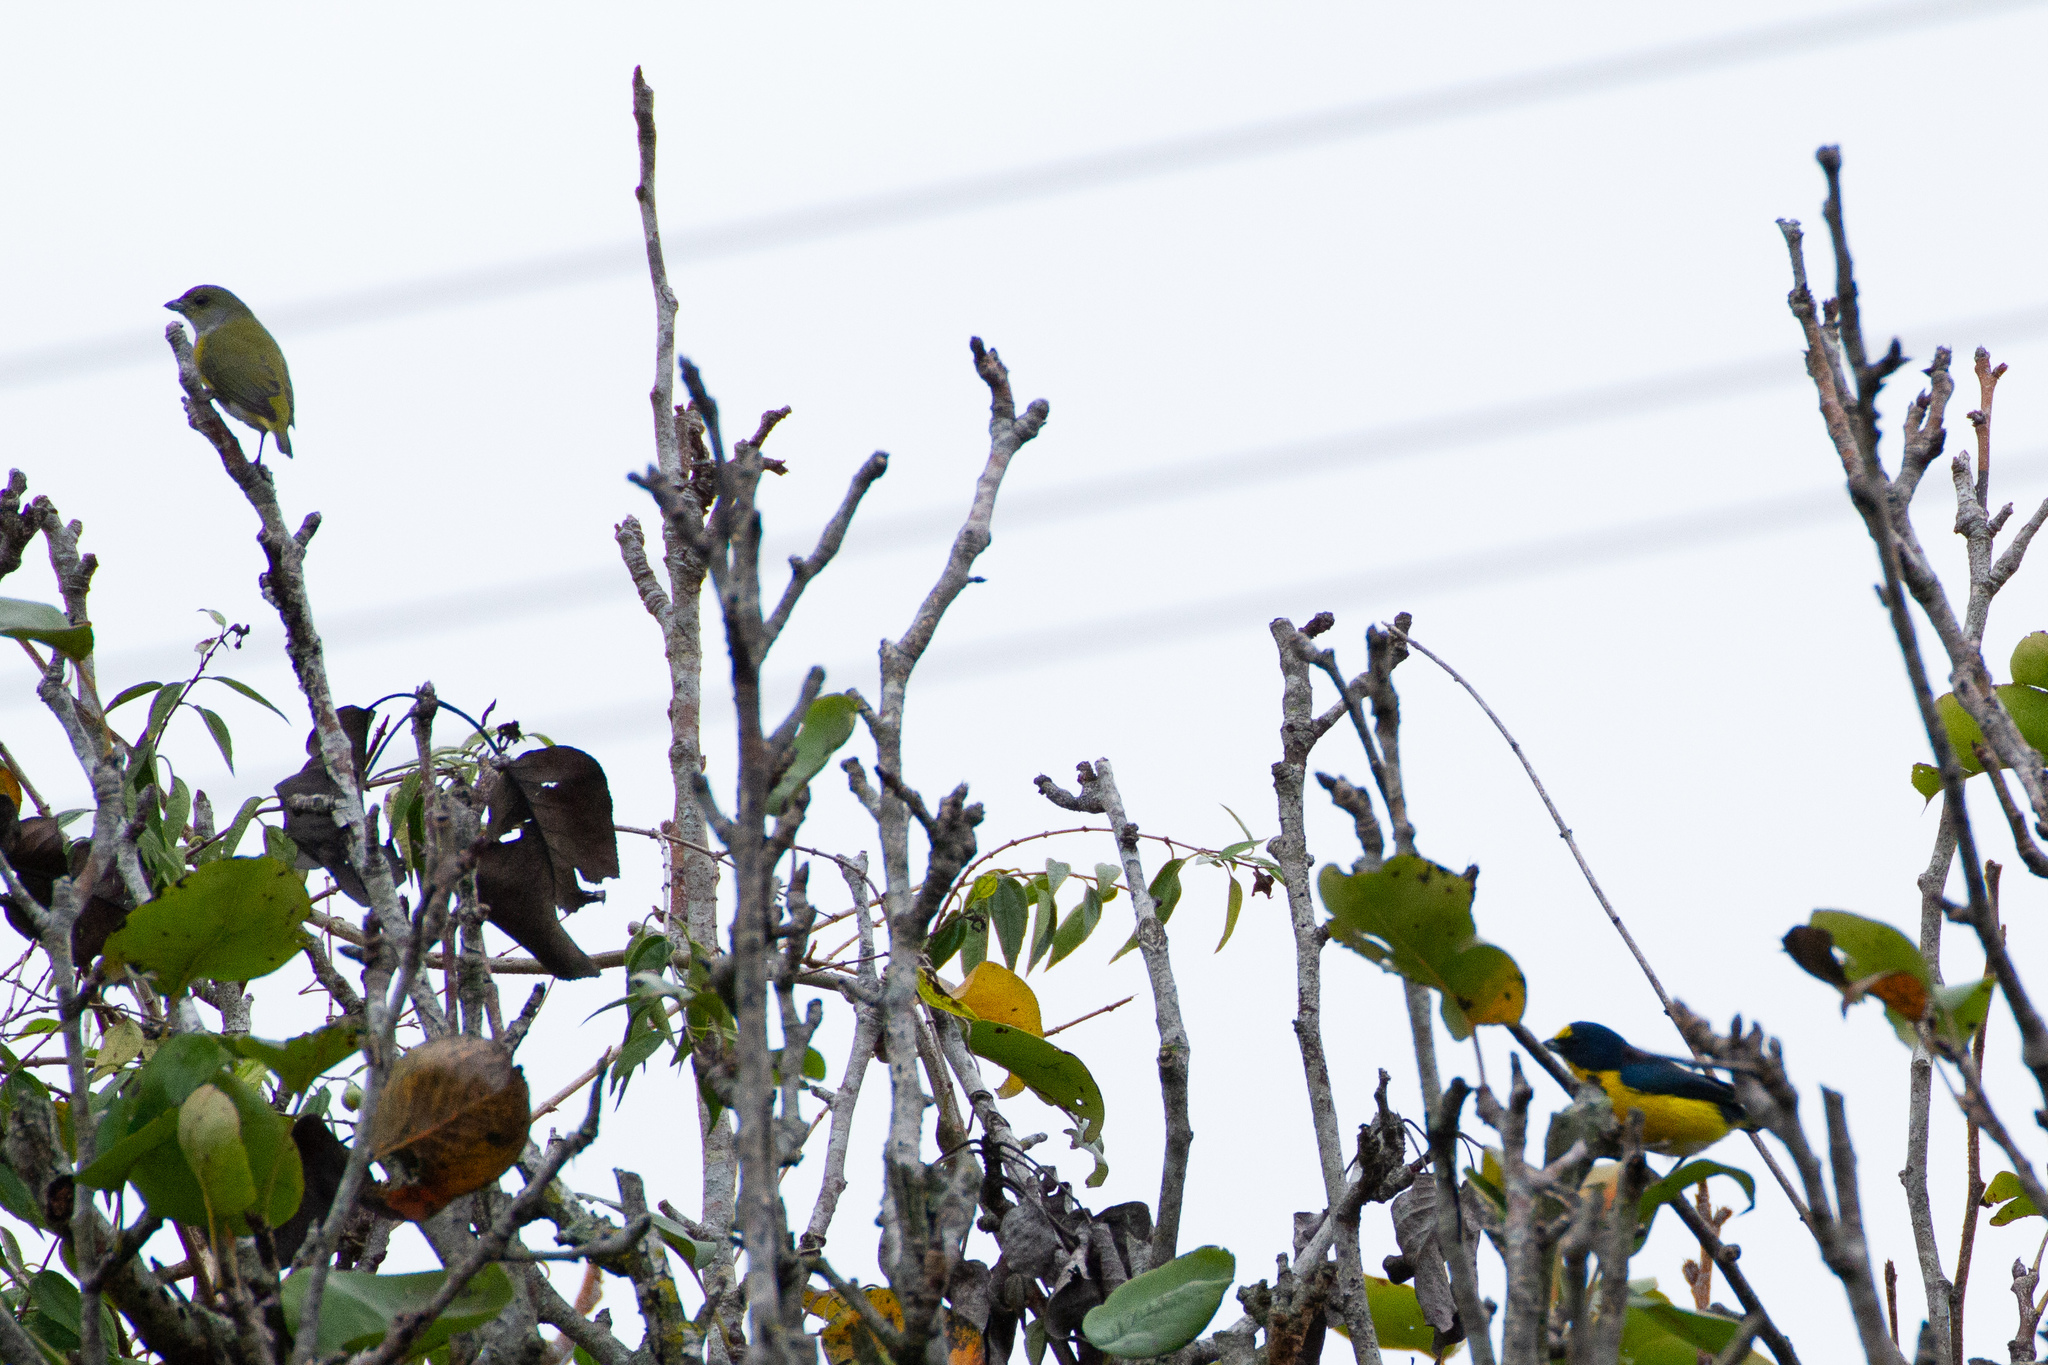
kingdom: Animalia
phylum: Chordata
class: Aves
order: Passeriformes
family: Fringillidae
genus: Euphonia
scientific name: Euphonia hirundinacea
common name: Yellow-throated euphonia
